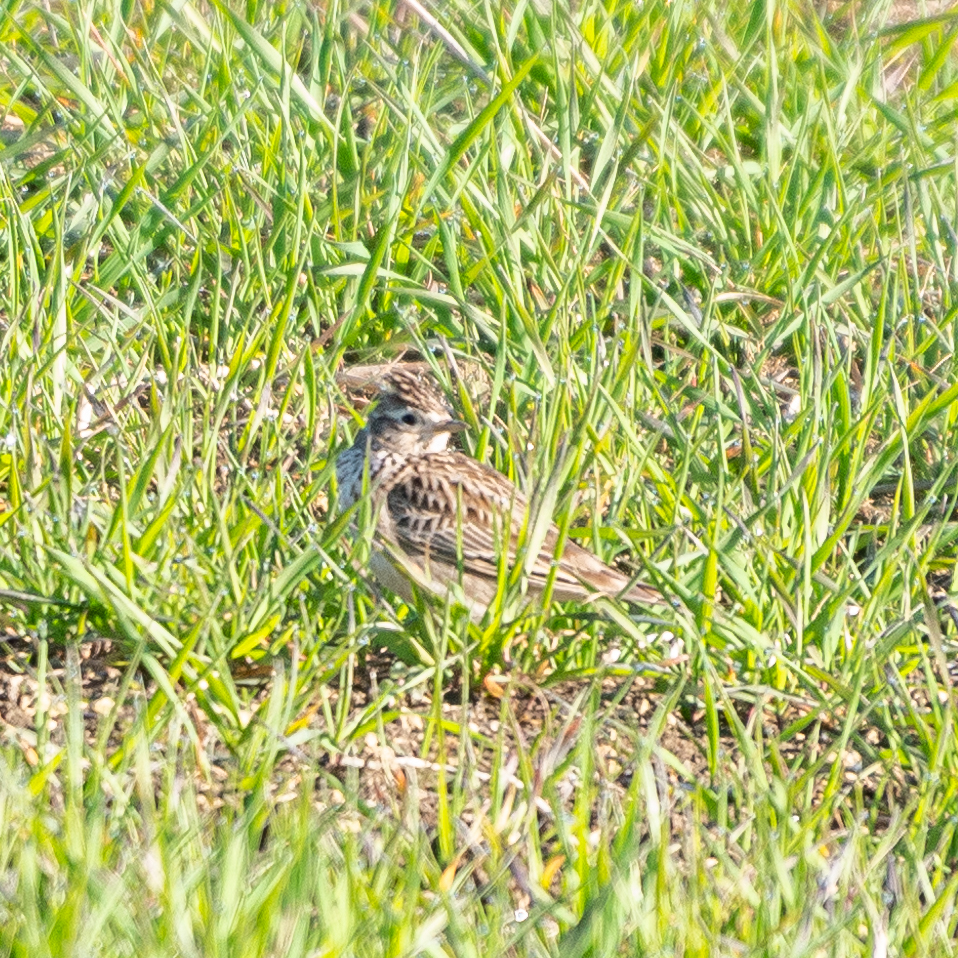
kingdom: Animalia
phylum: Chordata
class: Aves
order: Passeriformes
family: Alaudidae
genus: Alauda
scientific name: Alauda arvensis
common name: Eurasian skylark
